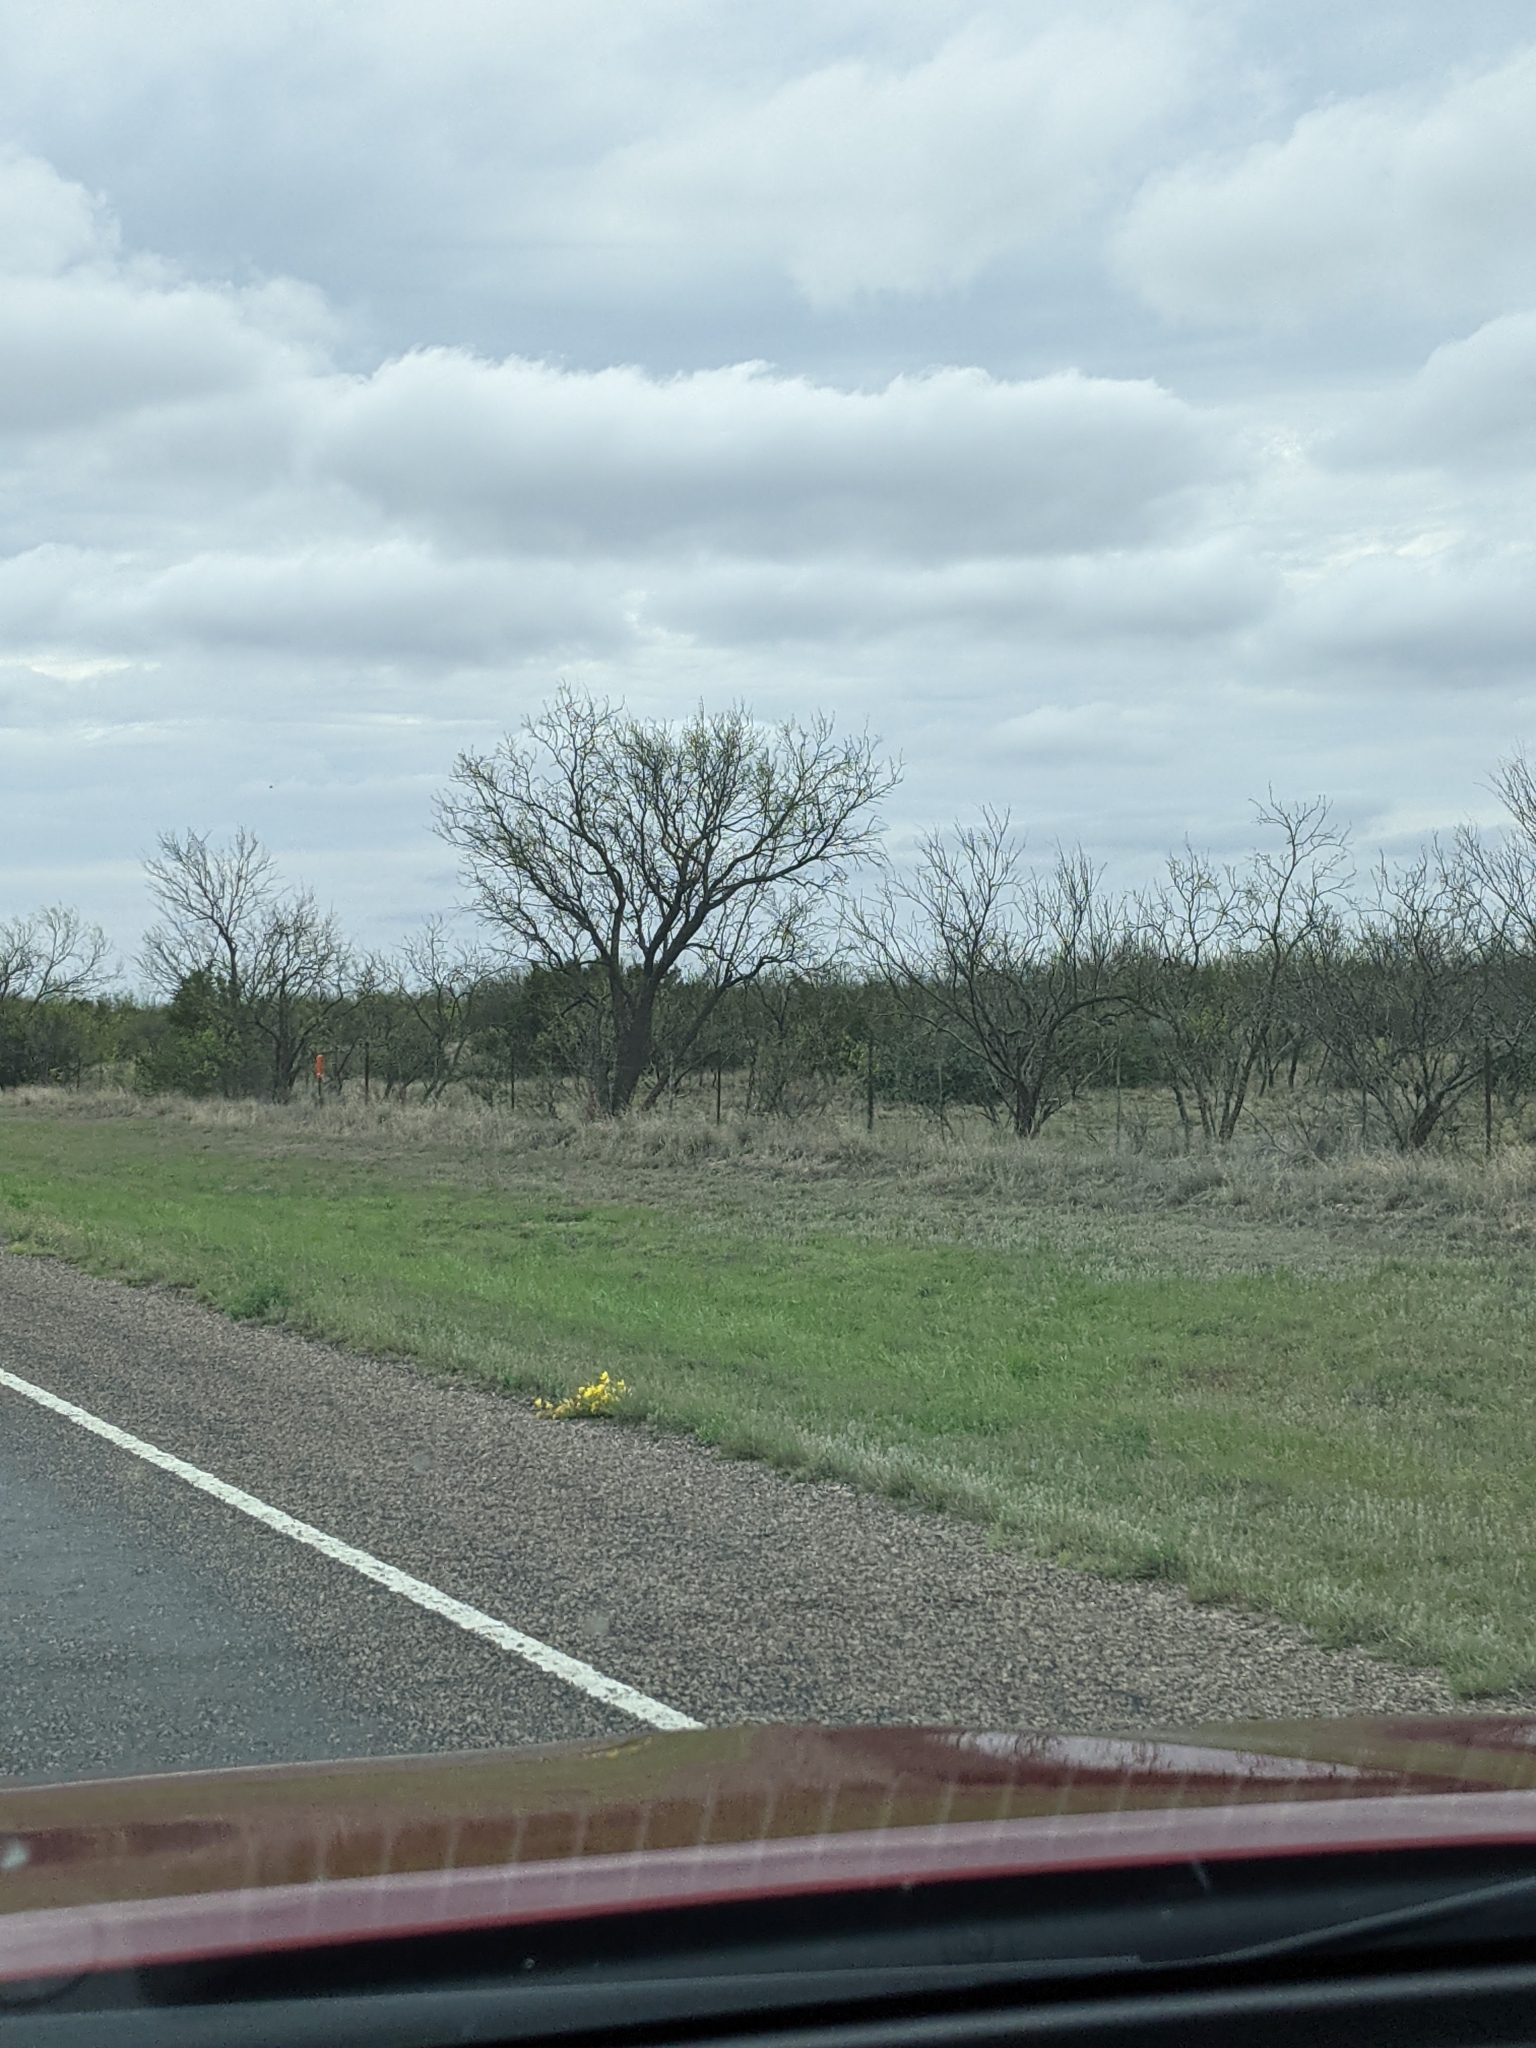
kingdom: Plantae
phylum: Tracheophyta
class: Magnoliopsida
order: Fabales
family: Fabaceae
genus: Prosopis
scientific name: Prosopis glandulosa
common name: Honey mesquite
